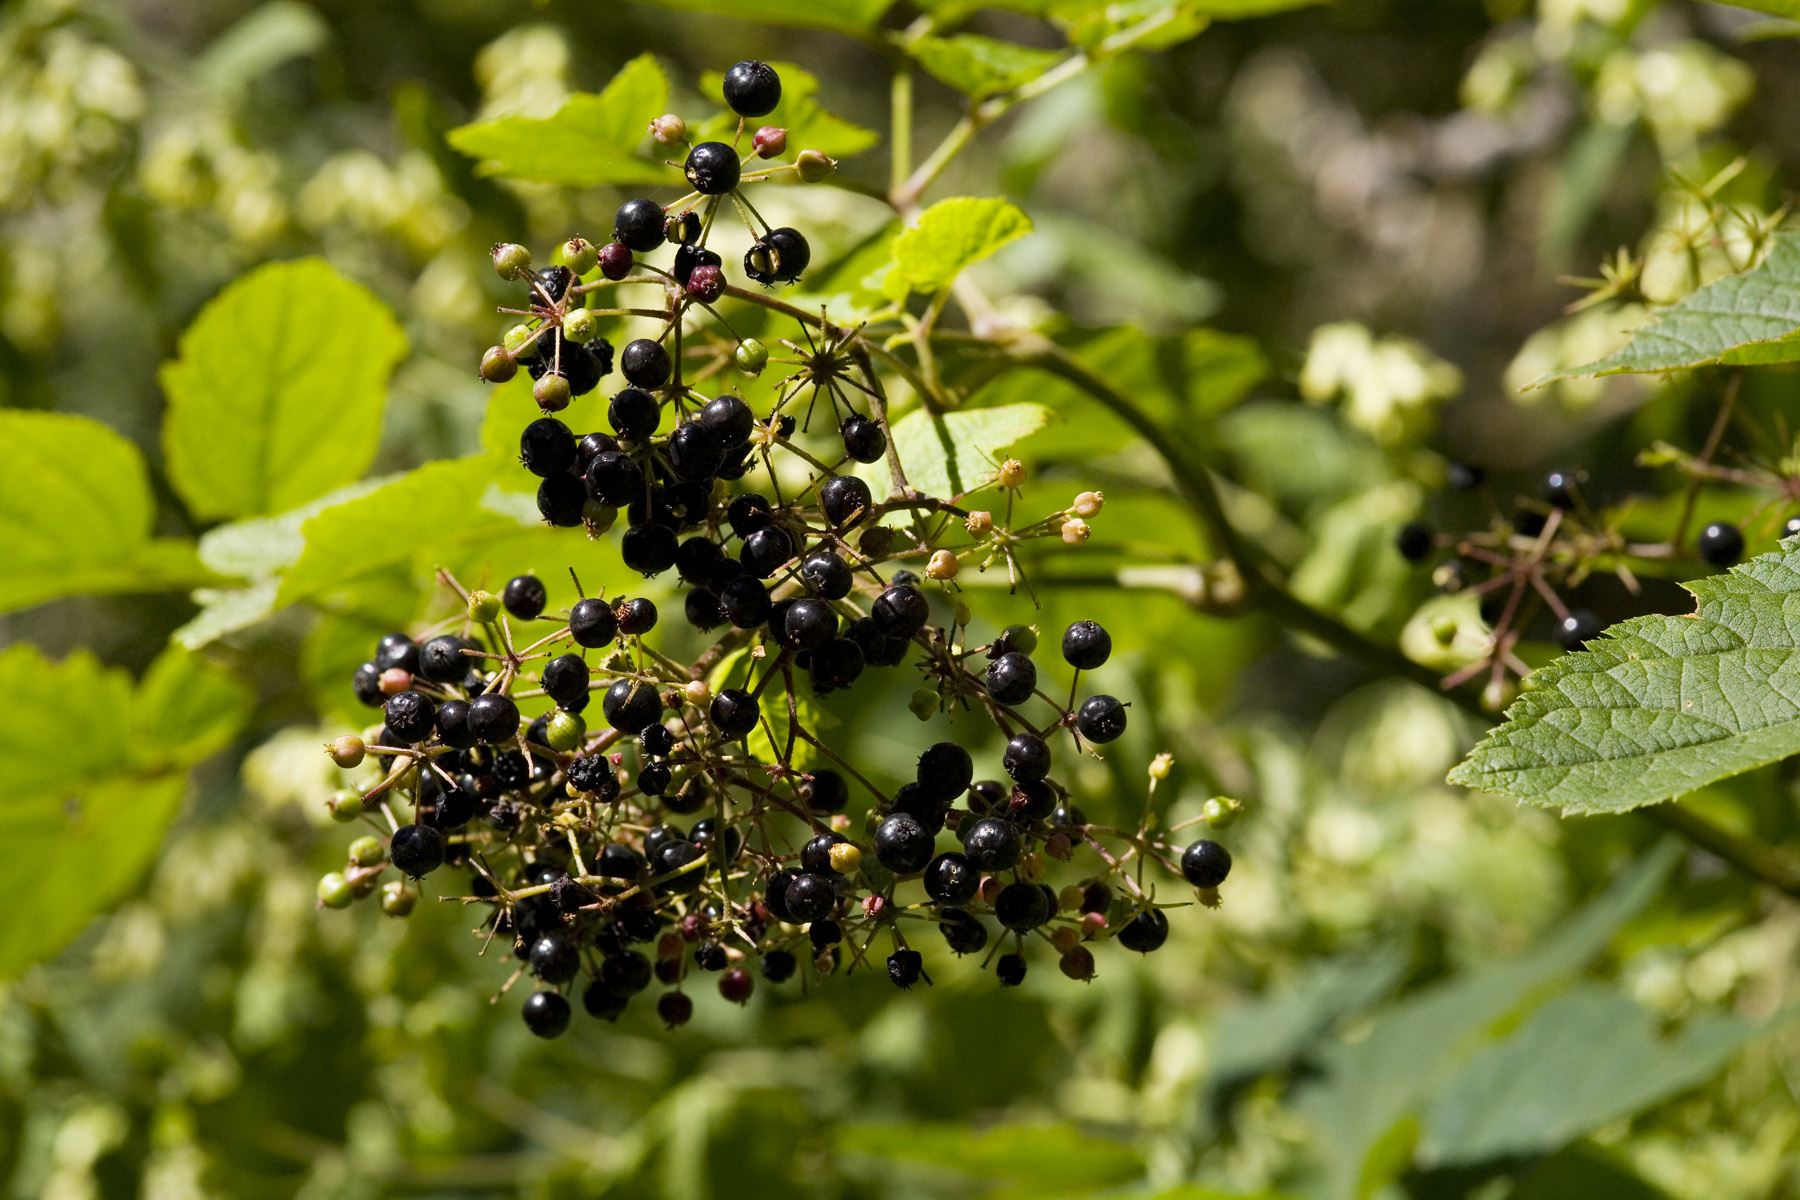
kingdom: Plantae
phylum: Tracheophyta
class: Magnoliopsida
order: Apiales
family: Araliaceae
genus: Aralia
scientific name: Aralia bicrenata
